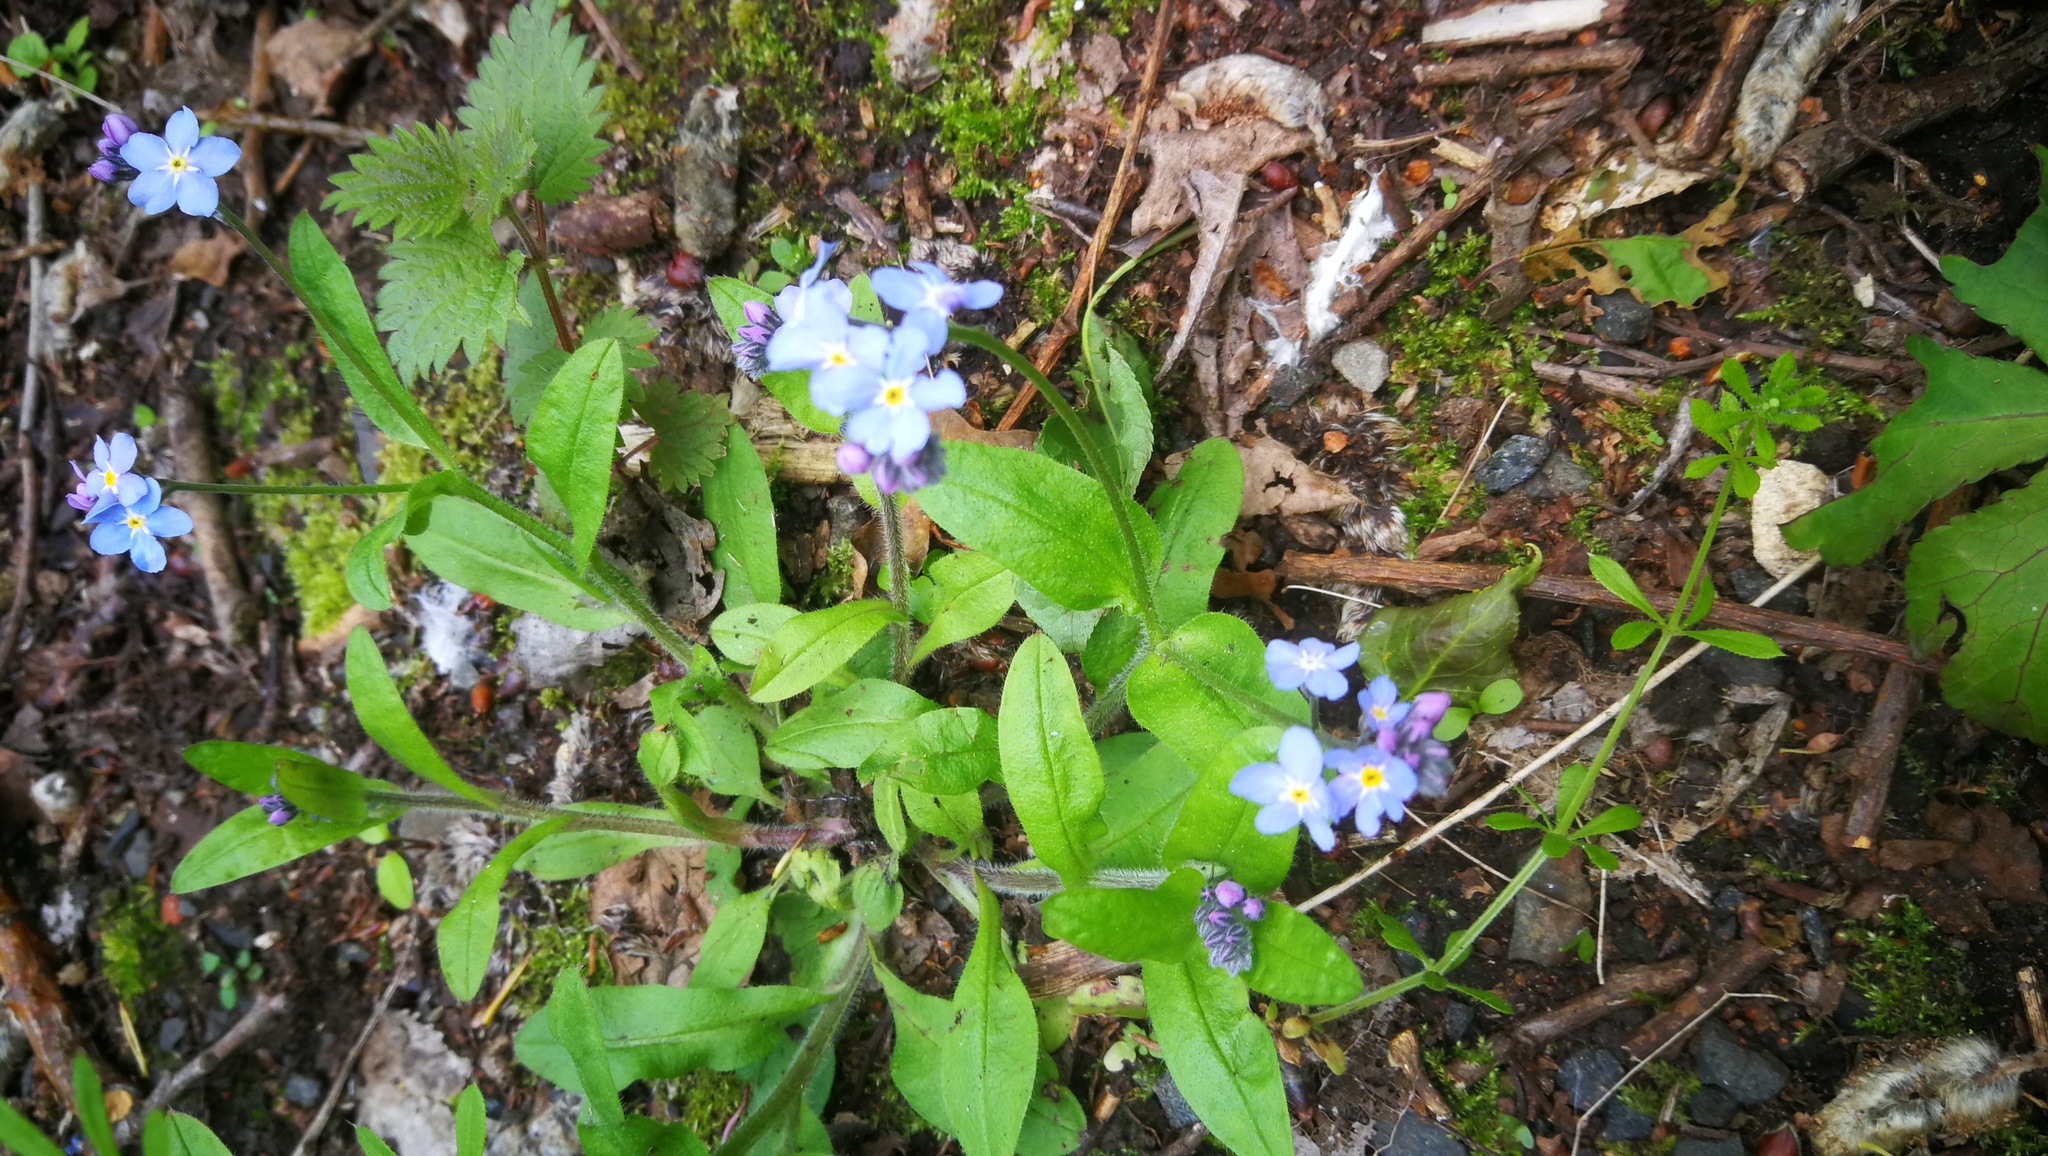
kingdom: Plantae
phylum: Tracheophyta
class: Magnoliopsida
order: Boraginales
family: Boraginaceae
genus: Myosotis
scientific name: Myosotis sylvatica
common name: Wood forget-me-not
